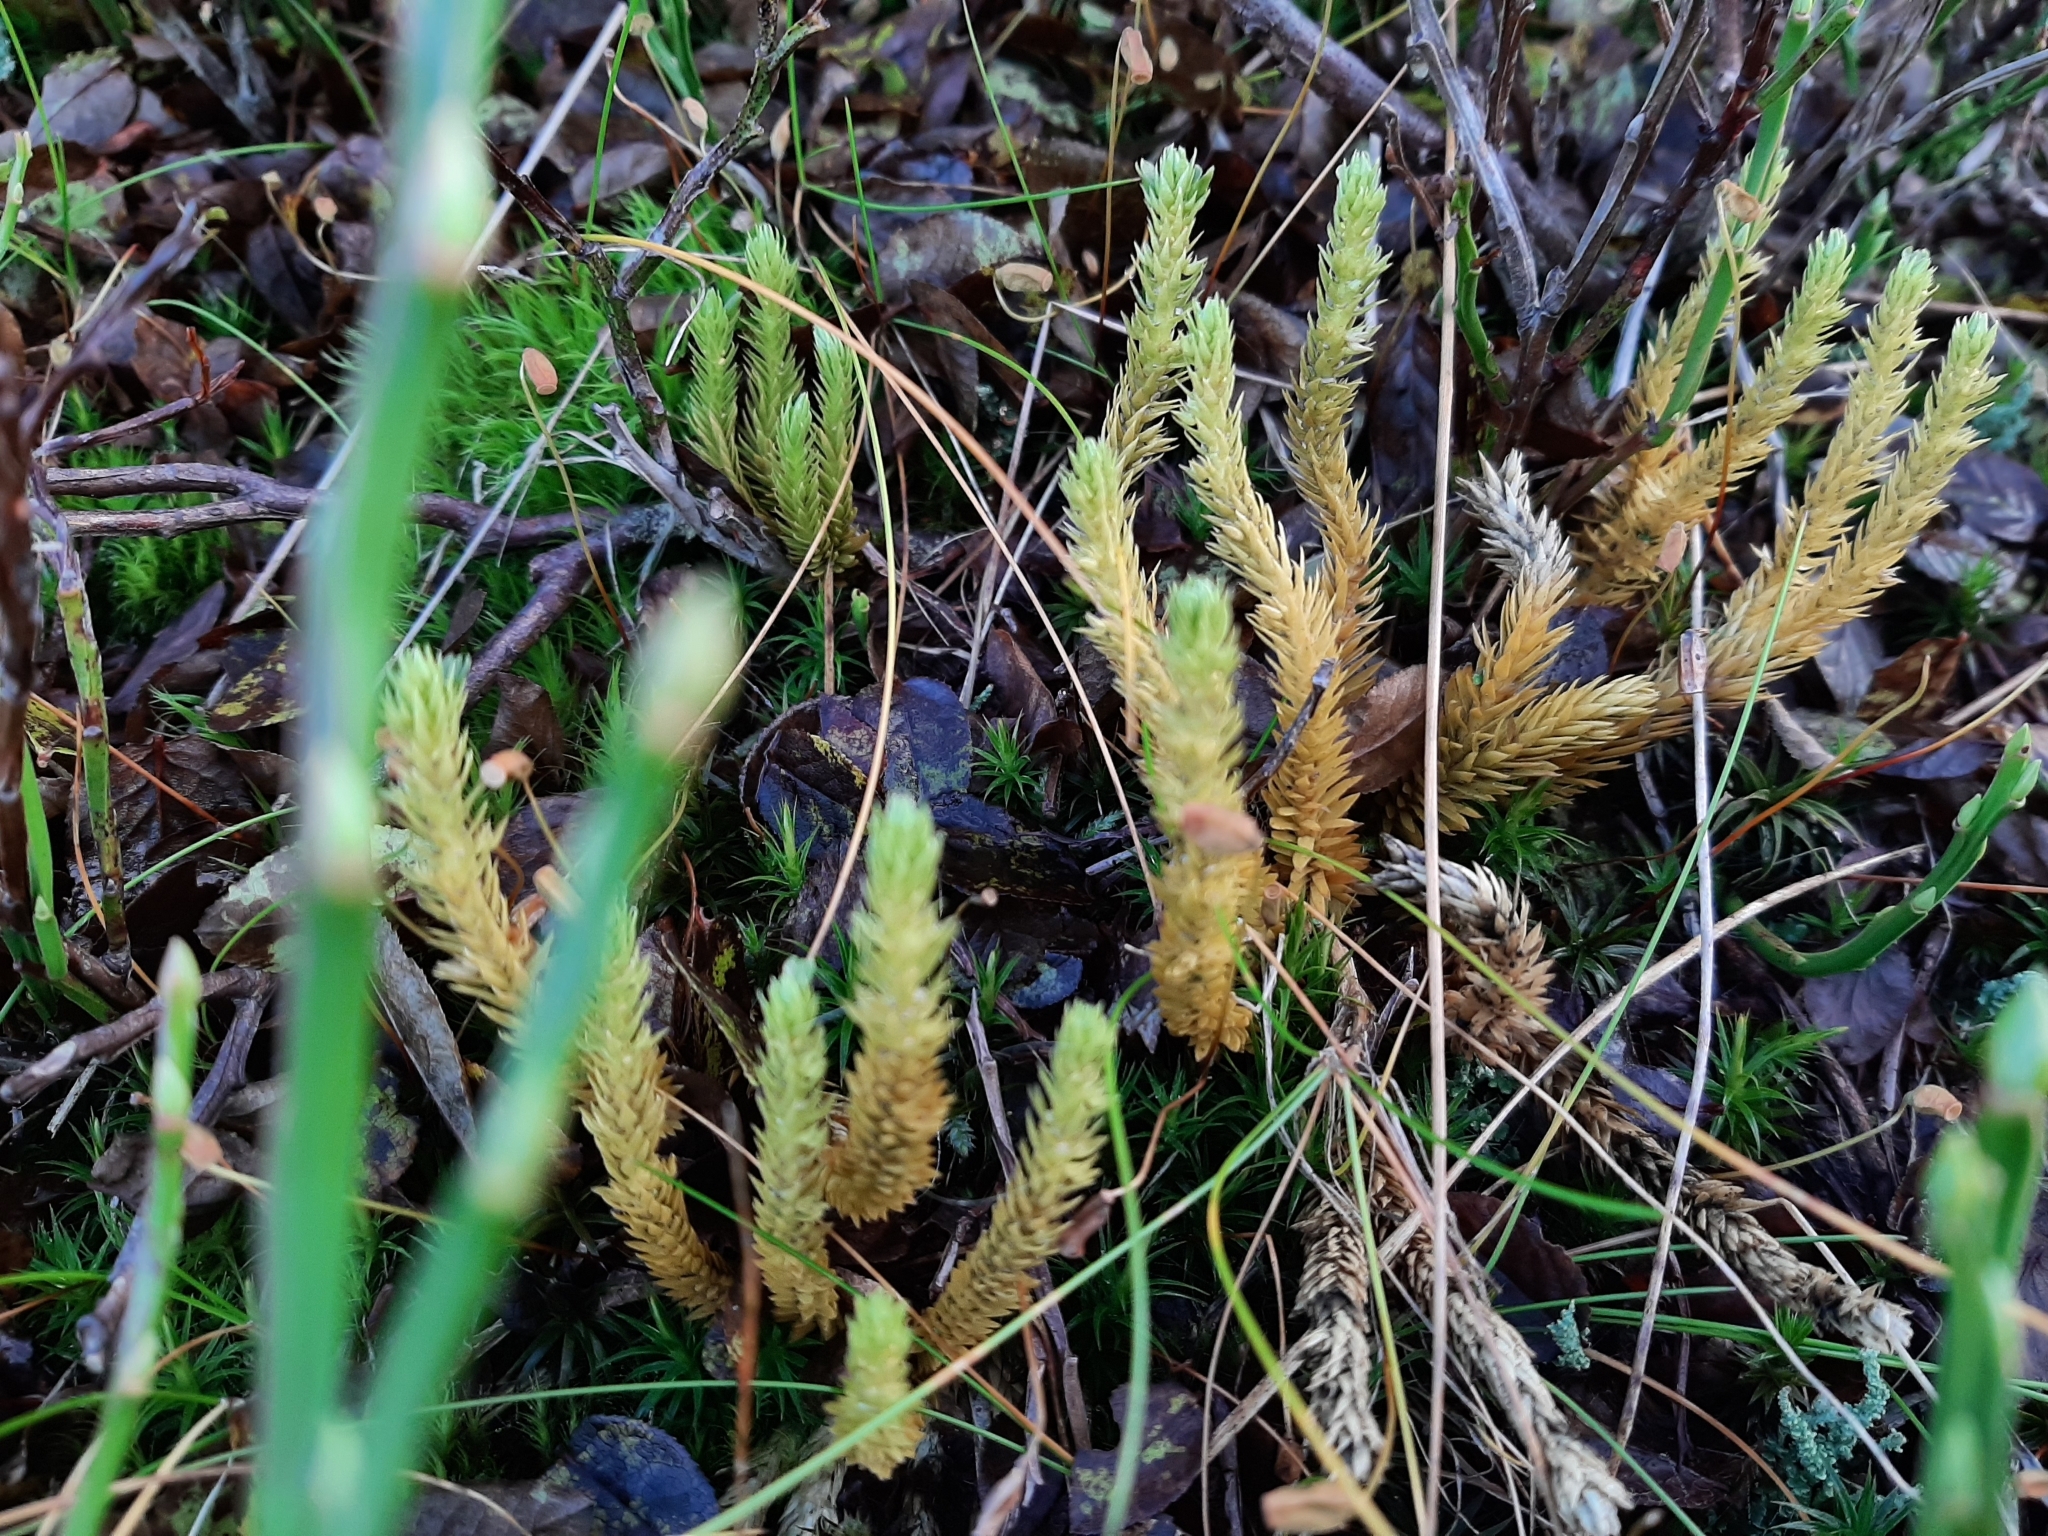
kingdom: Plantae
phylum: Tracheophyta
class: Lycopodiopsida
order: Lycopodiales
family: Lycopodiaceae
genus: Lycopodiella
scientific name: Lycopodiella inundata
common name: Marsh clubmoss
